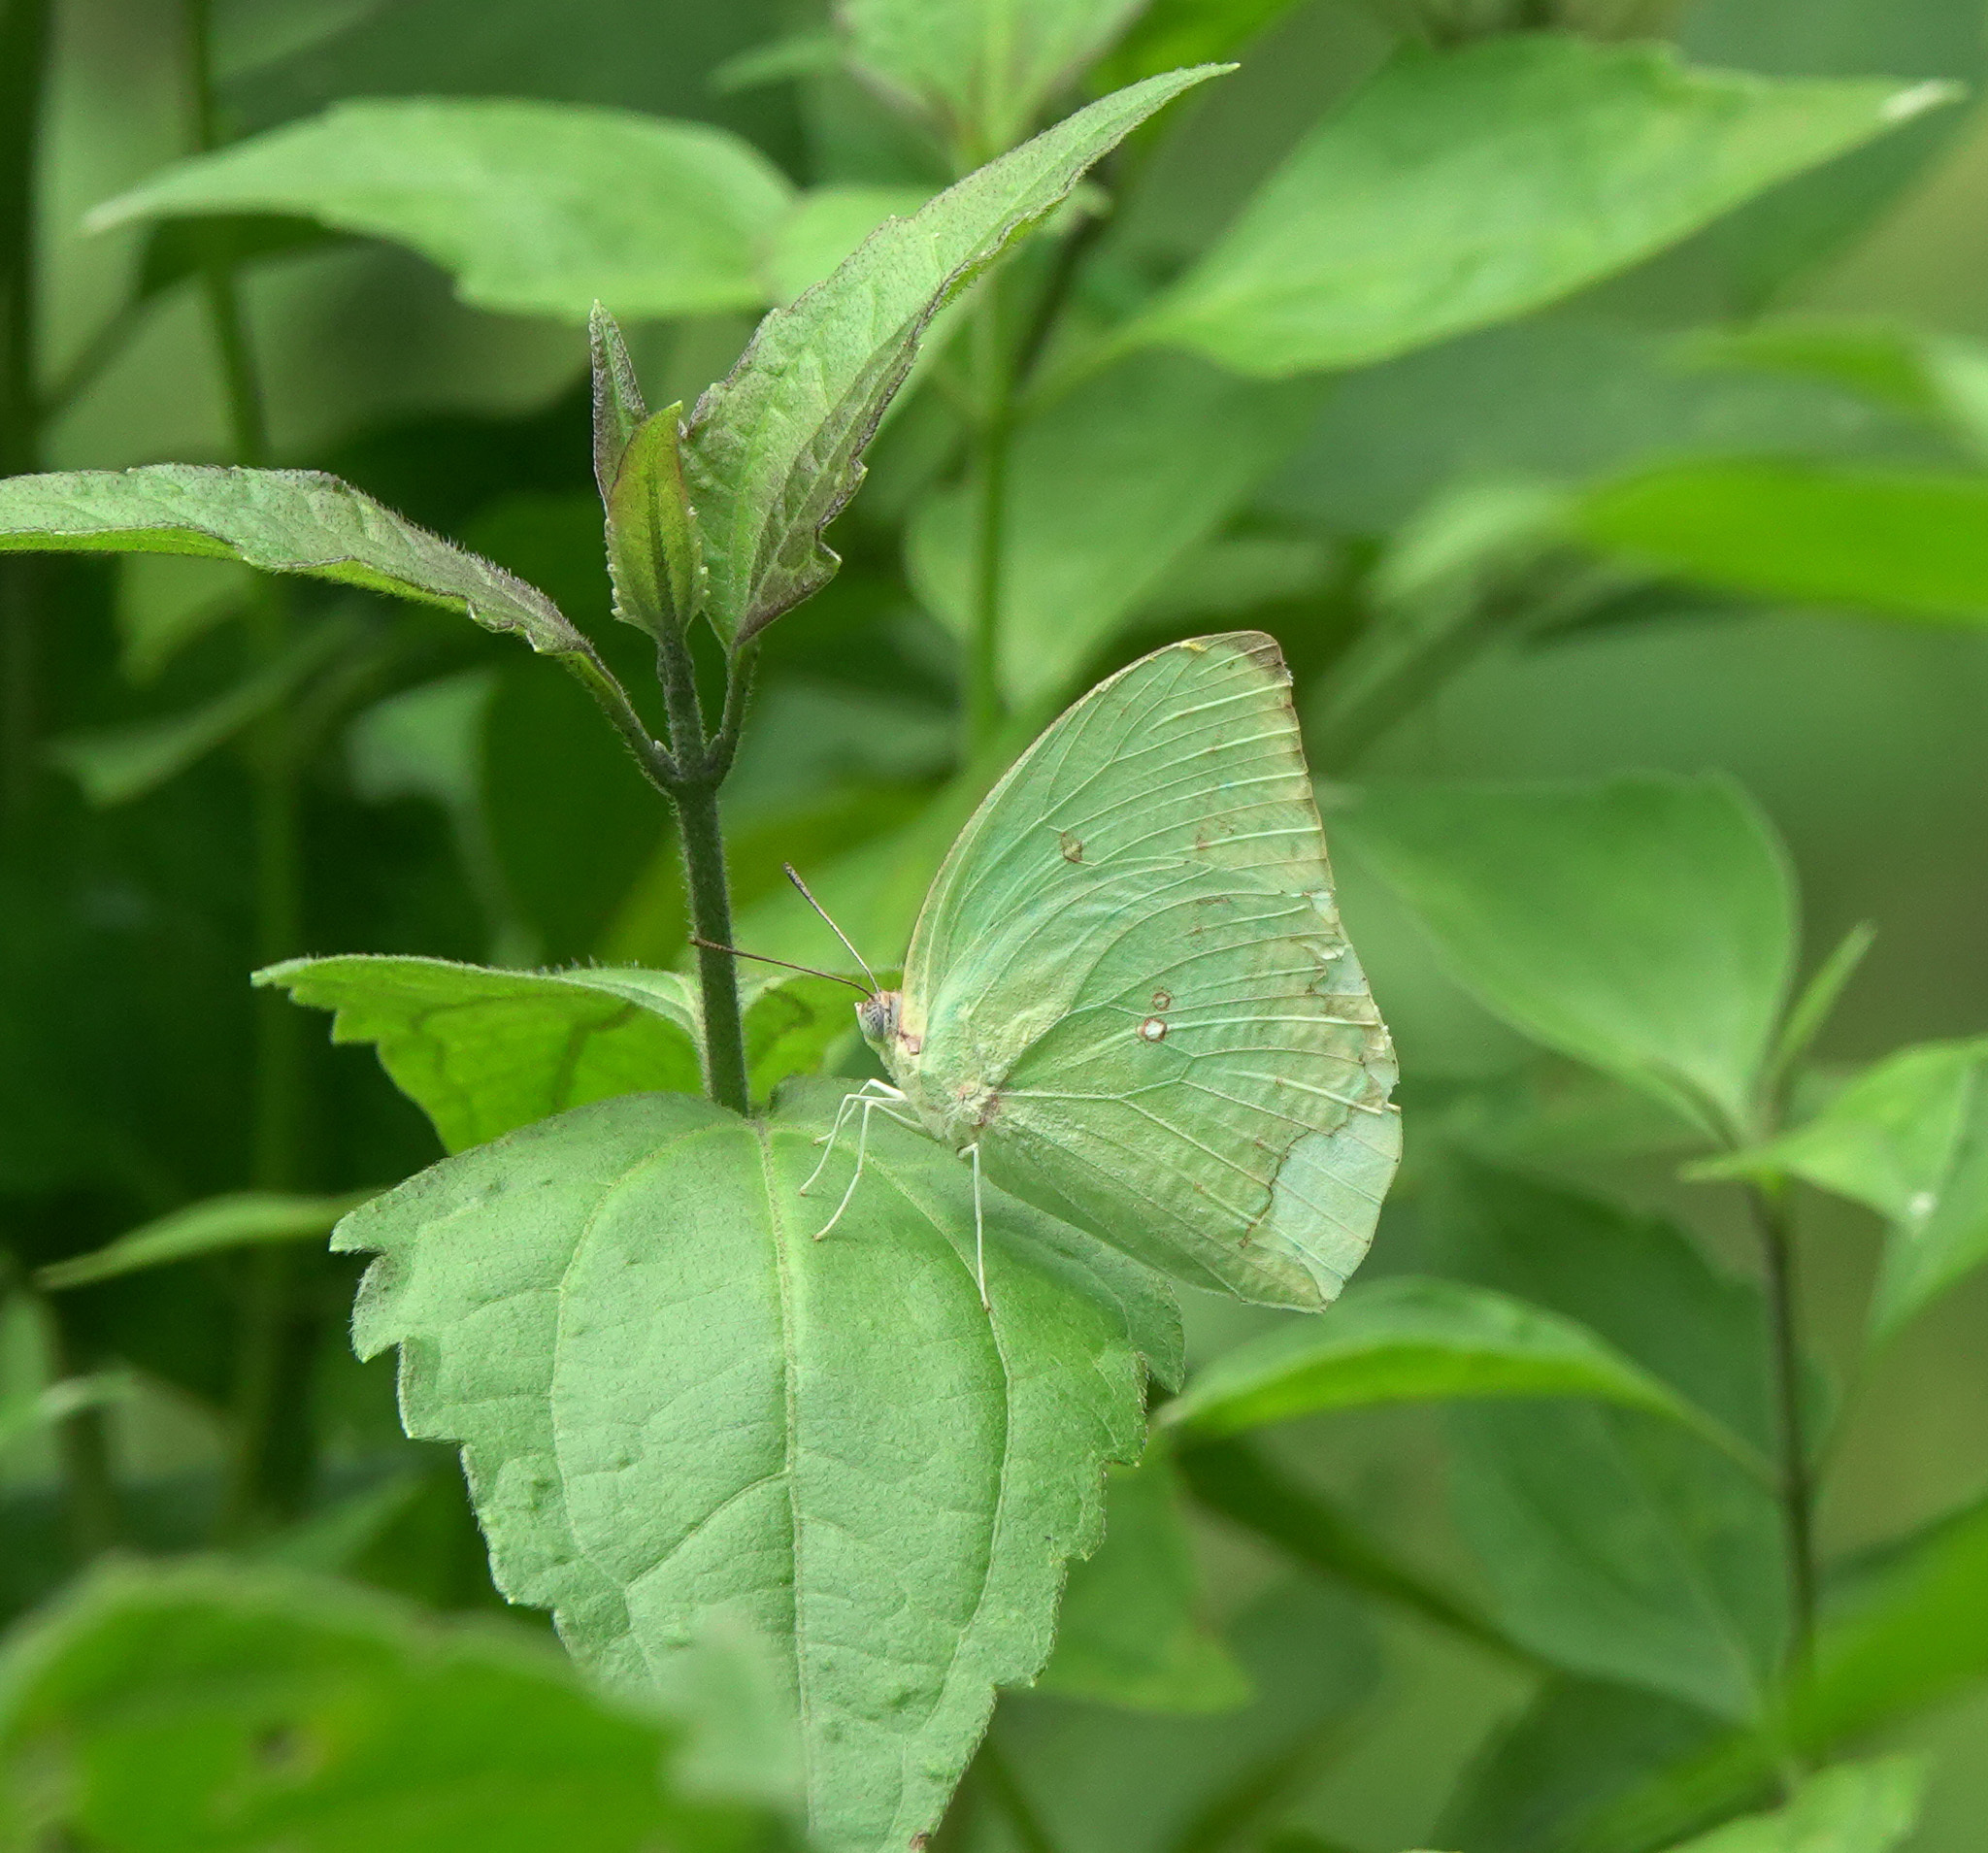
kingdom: Animalia
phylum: Arthropoda
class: Insecta
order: Lepidoptera
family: Pieridae
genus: Catopsilia
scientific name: Catopsilia pomona
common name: Common emigrant
